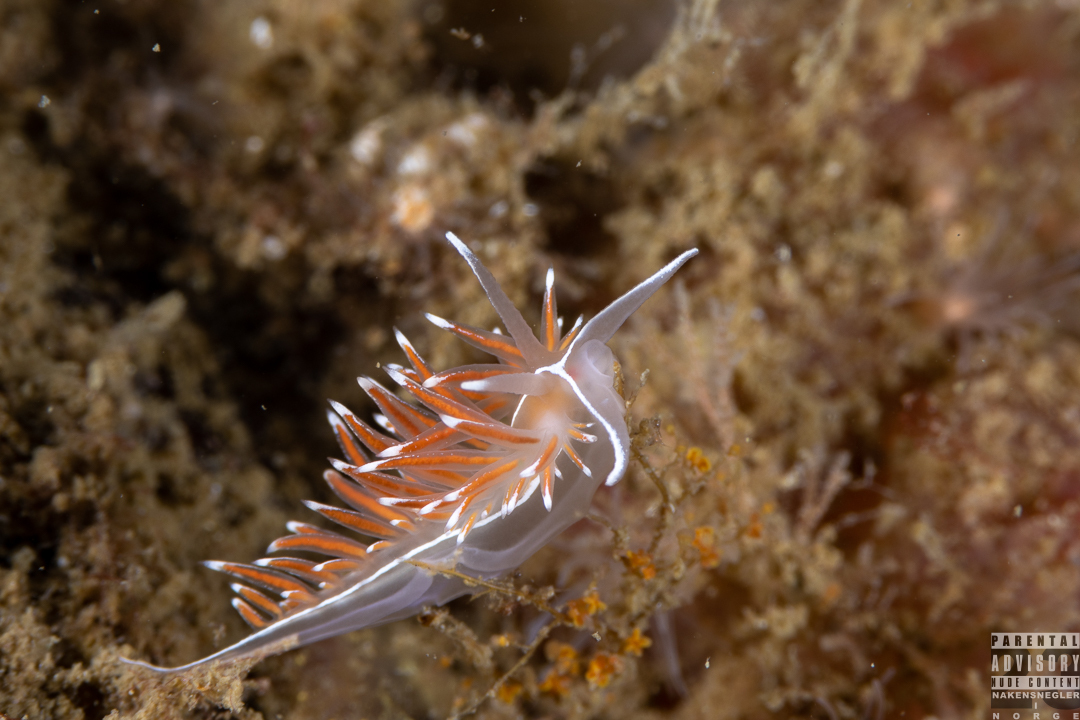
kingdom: Animalia
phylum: Mollusca
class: Gastropoda
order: Nudibranchia
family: Coryphellidae
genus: Coryphella
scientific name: Coryphella lineata
